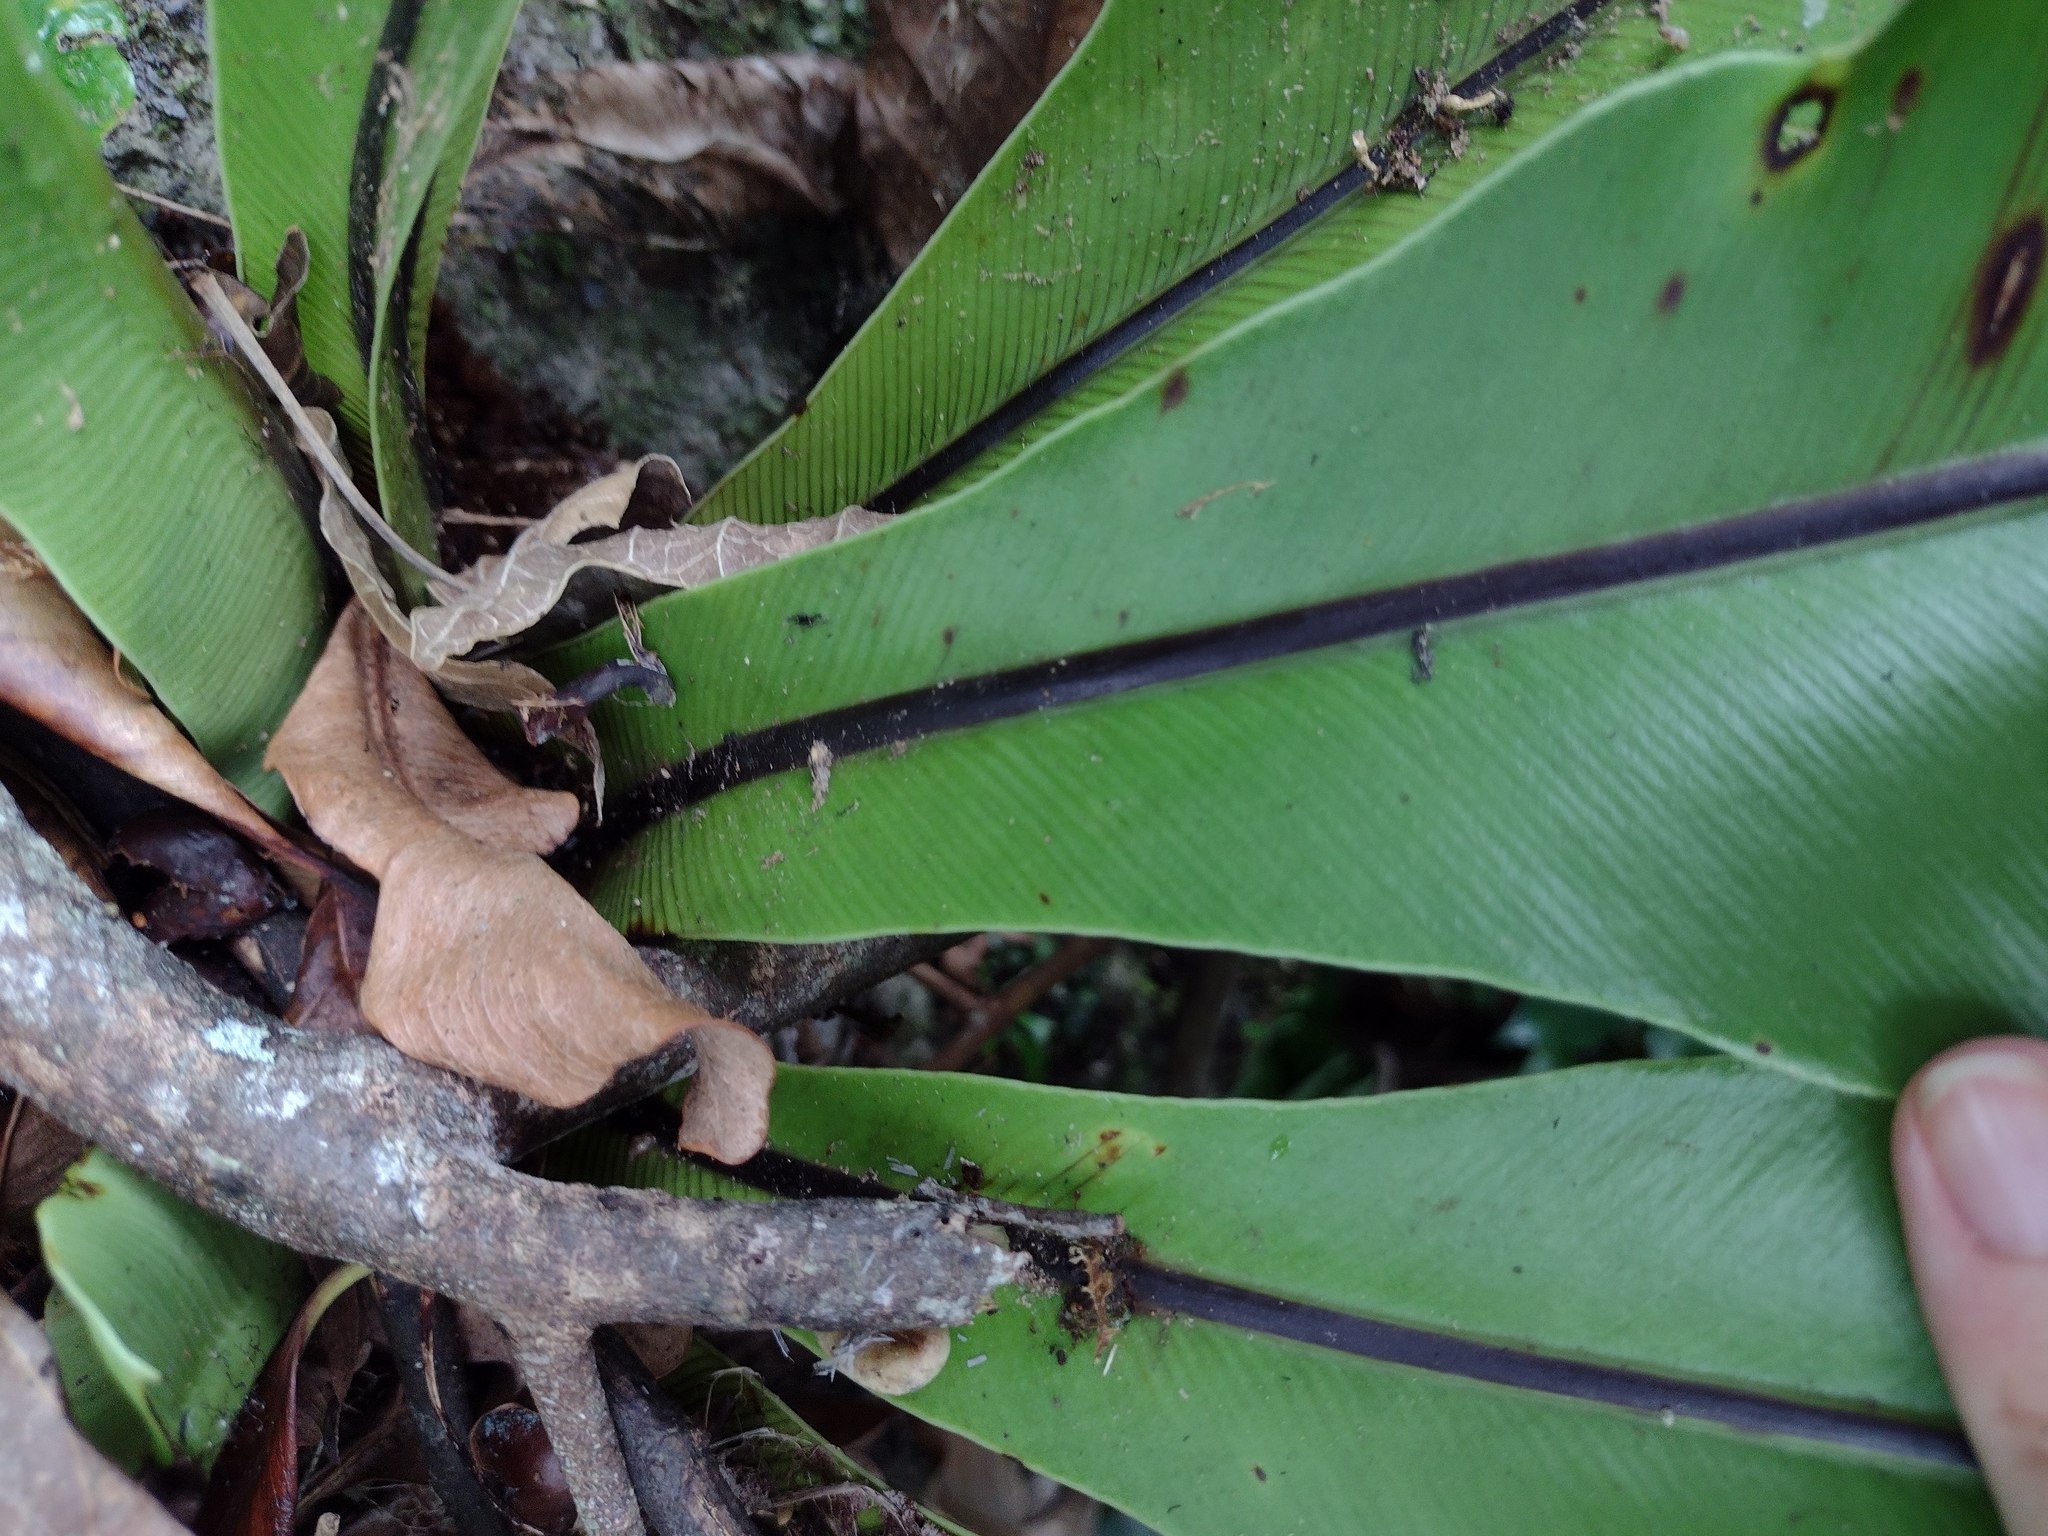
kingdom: Plantae
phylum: Tracheophyta
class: Polypodiopsida
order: Polypodiales
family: Aspleniaceae
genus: Asplenium
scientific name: Asplenium nidus
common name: Bird's-nest fern
